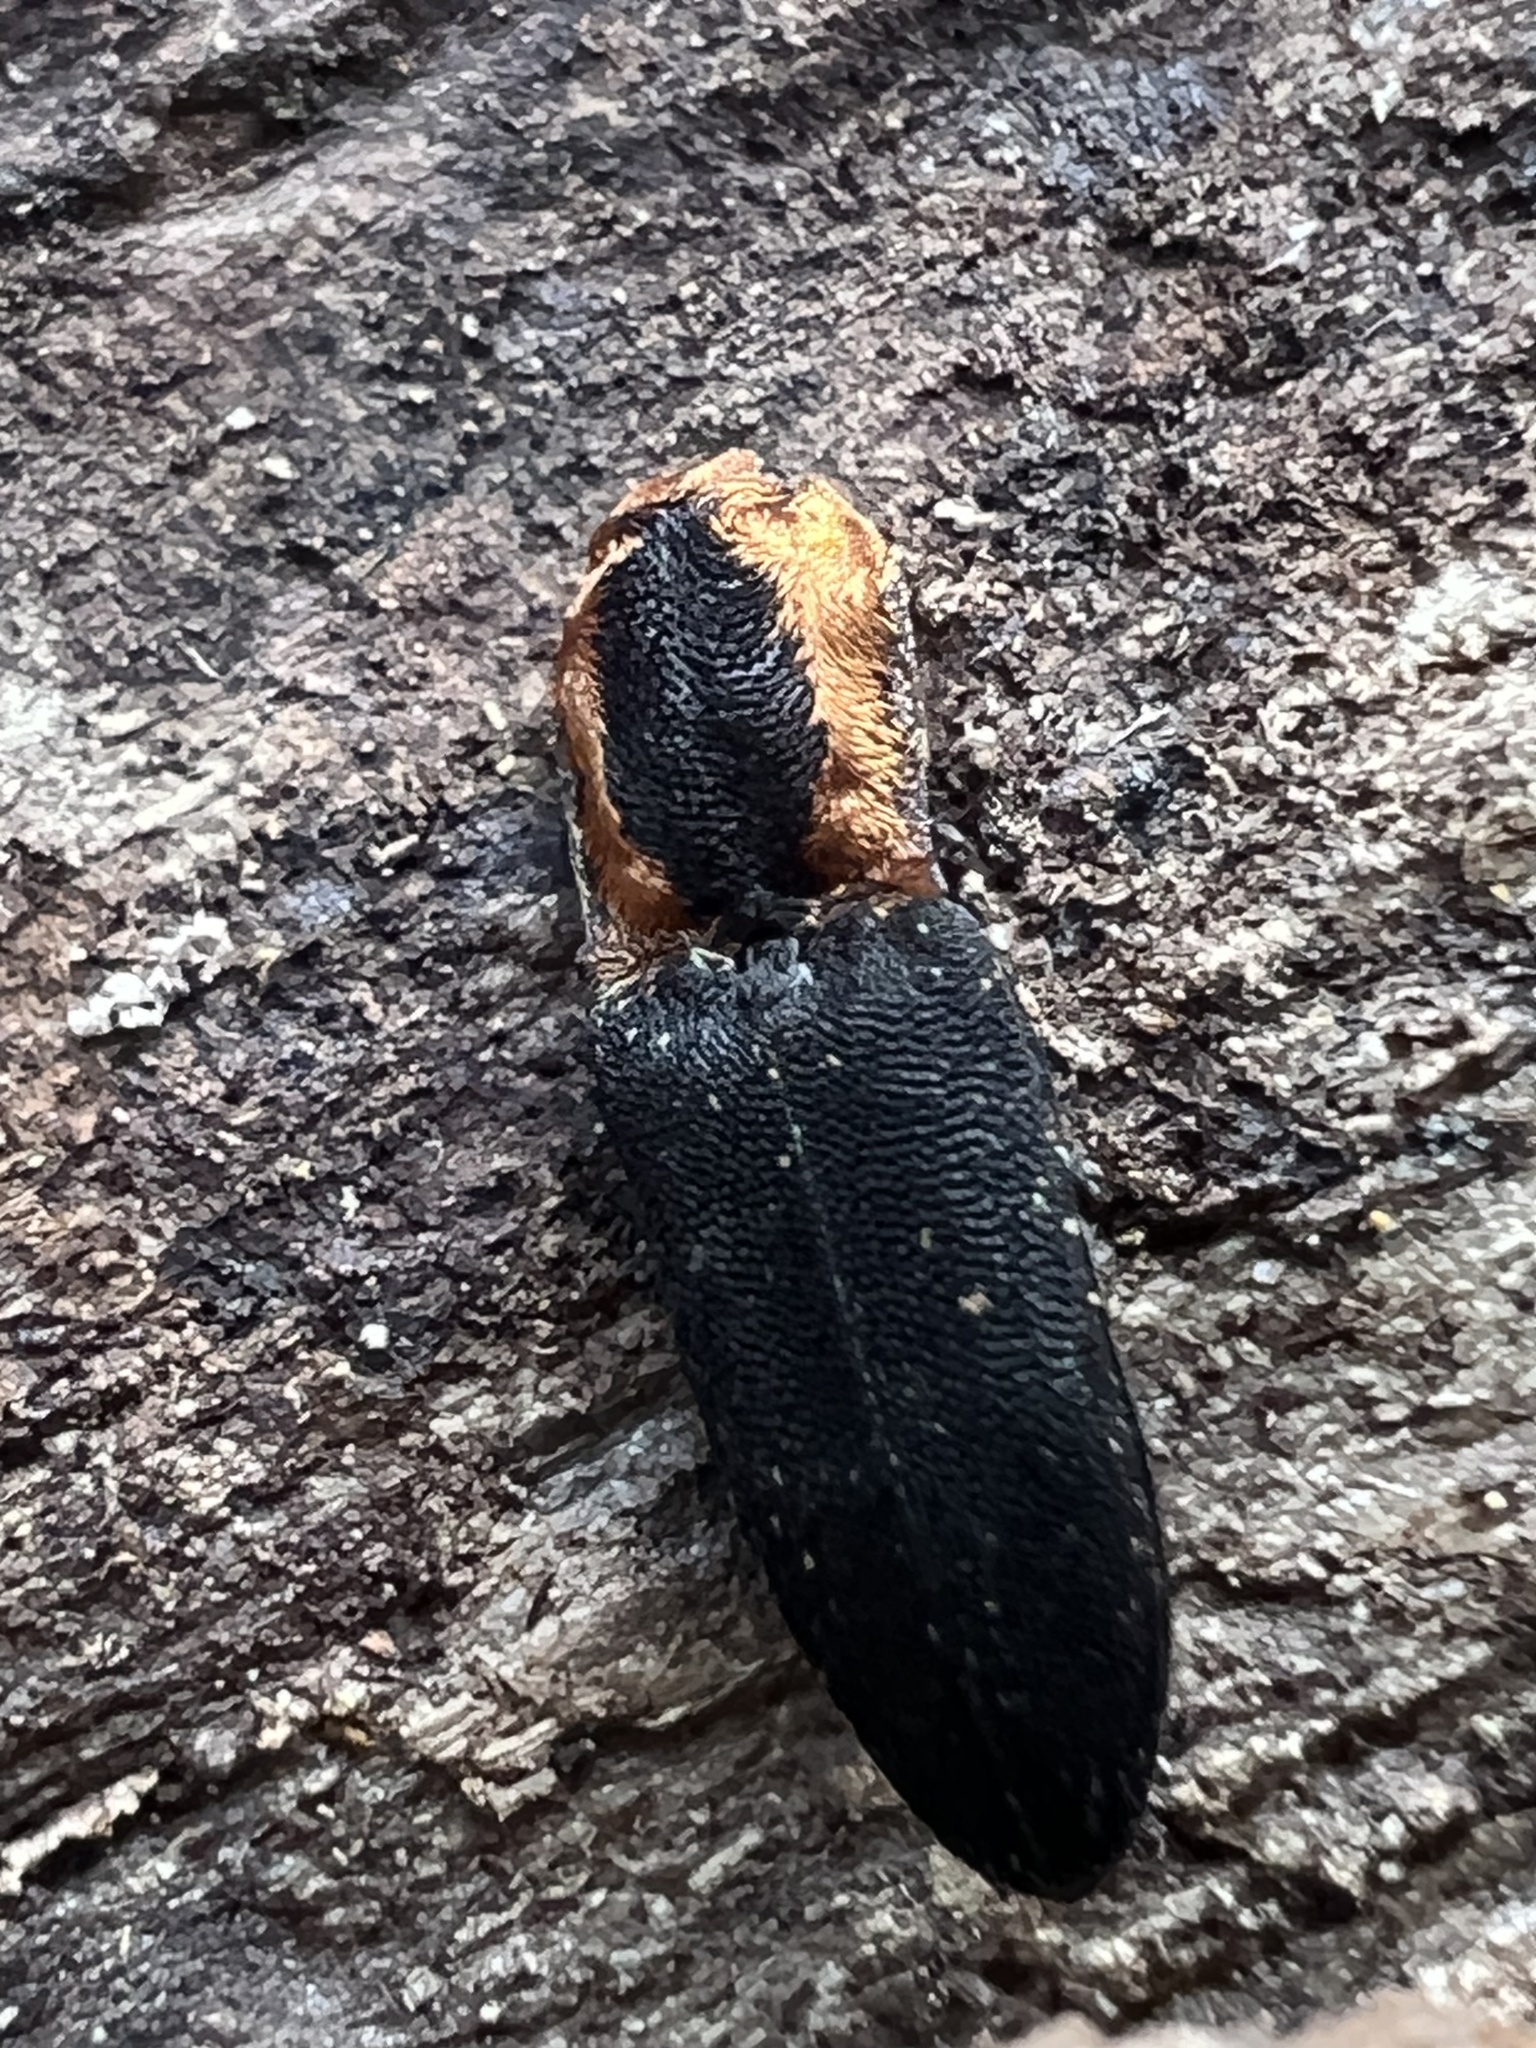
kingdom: Animalia
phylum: Arthropoda
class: Insecta
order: Coleoptera
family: Elateridae
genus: Lacon
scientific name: Lacon discoideus
